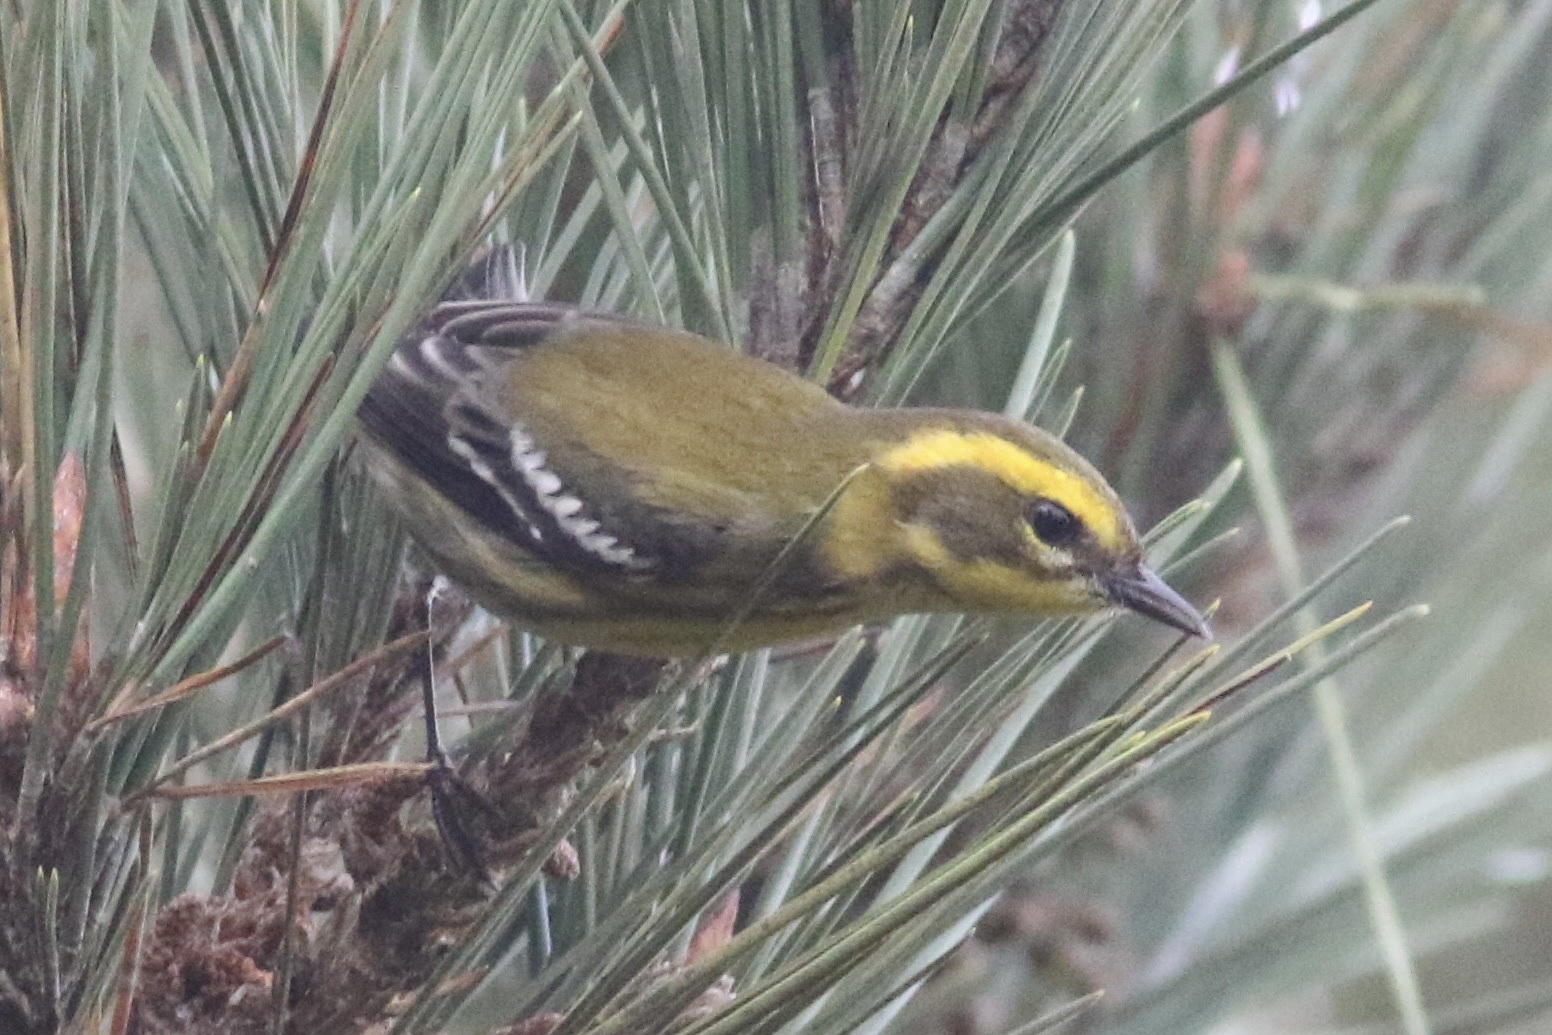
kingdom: Animalia
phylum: Chordata
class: Aves
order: Passeriformes
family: Parulidae
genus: Setophaga
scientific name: Setophaga townsendi
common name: Townsend's warbler
